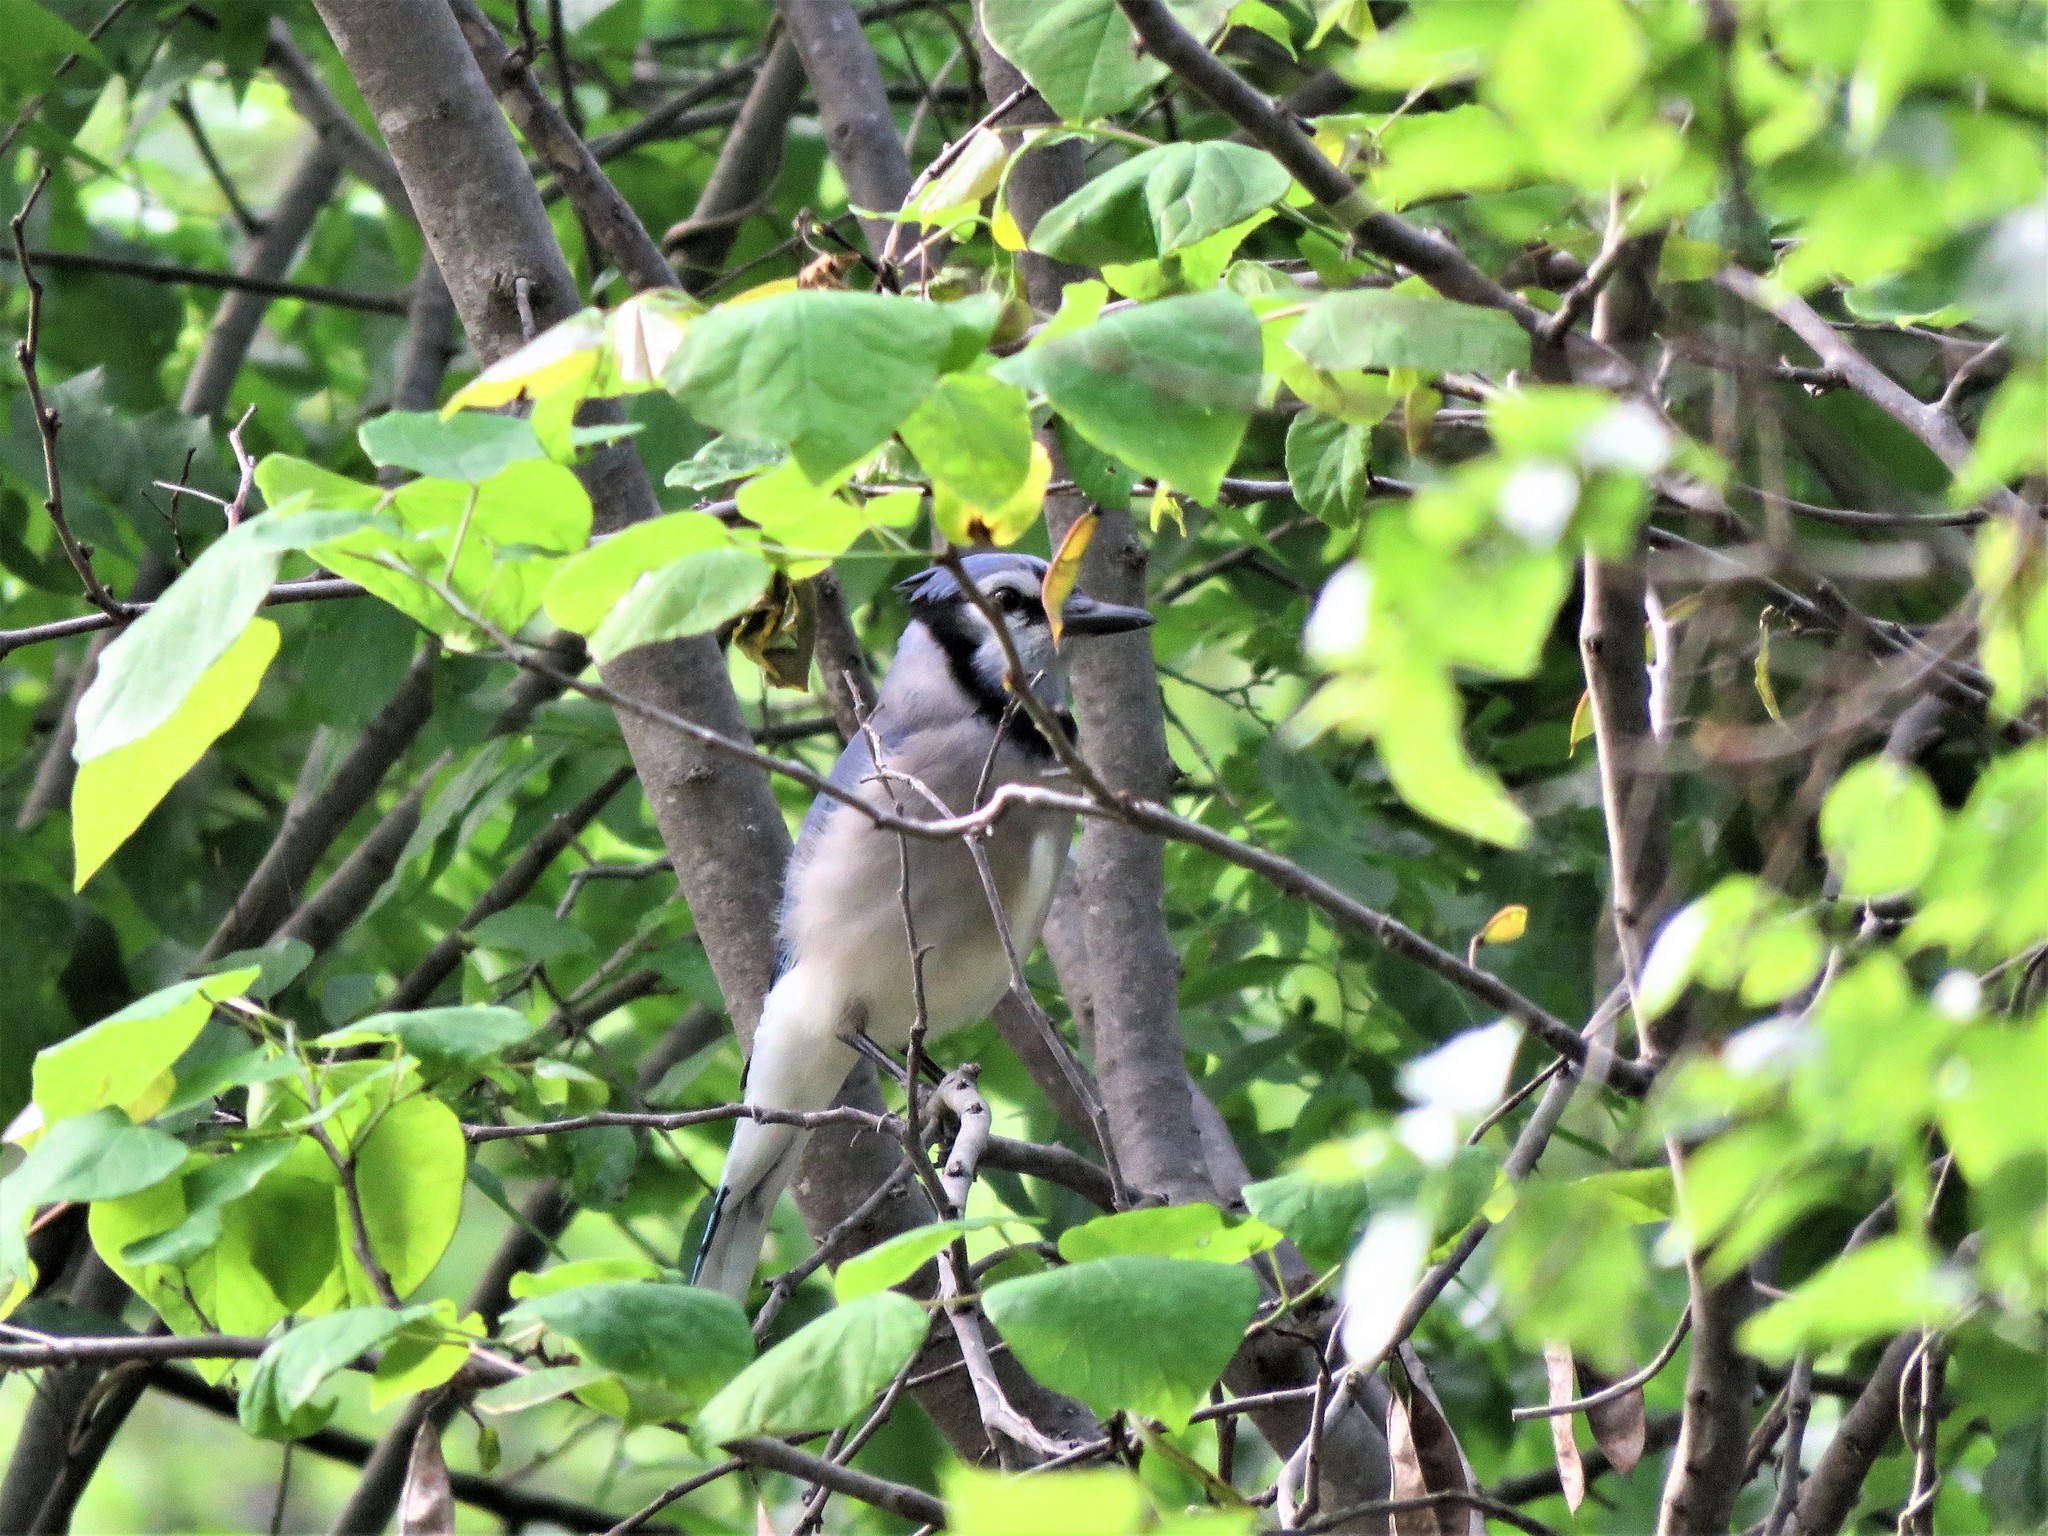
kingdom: Animalia
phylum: Chordata
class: Aves
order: Passeriformes
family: Corvidae
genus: Cyanocitta
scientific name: Cyanocitta cristata
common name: Blue jay
